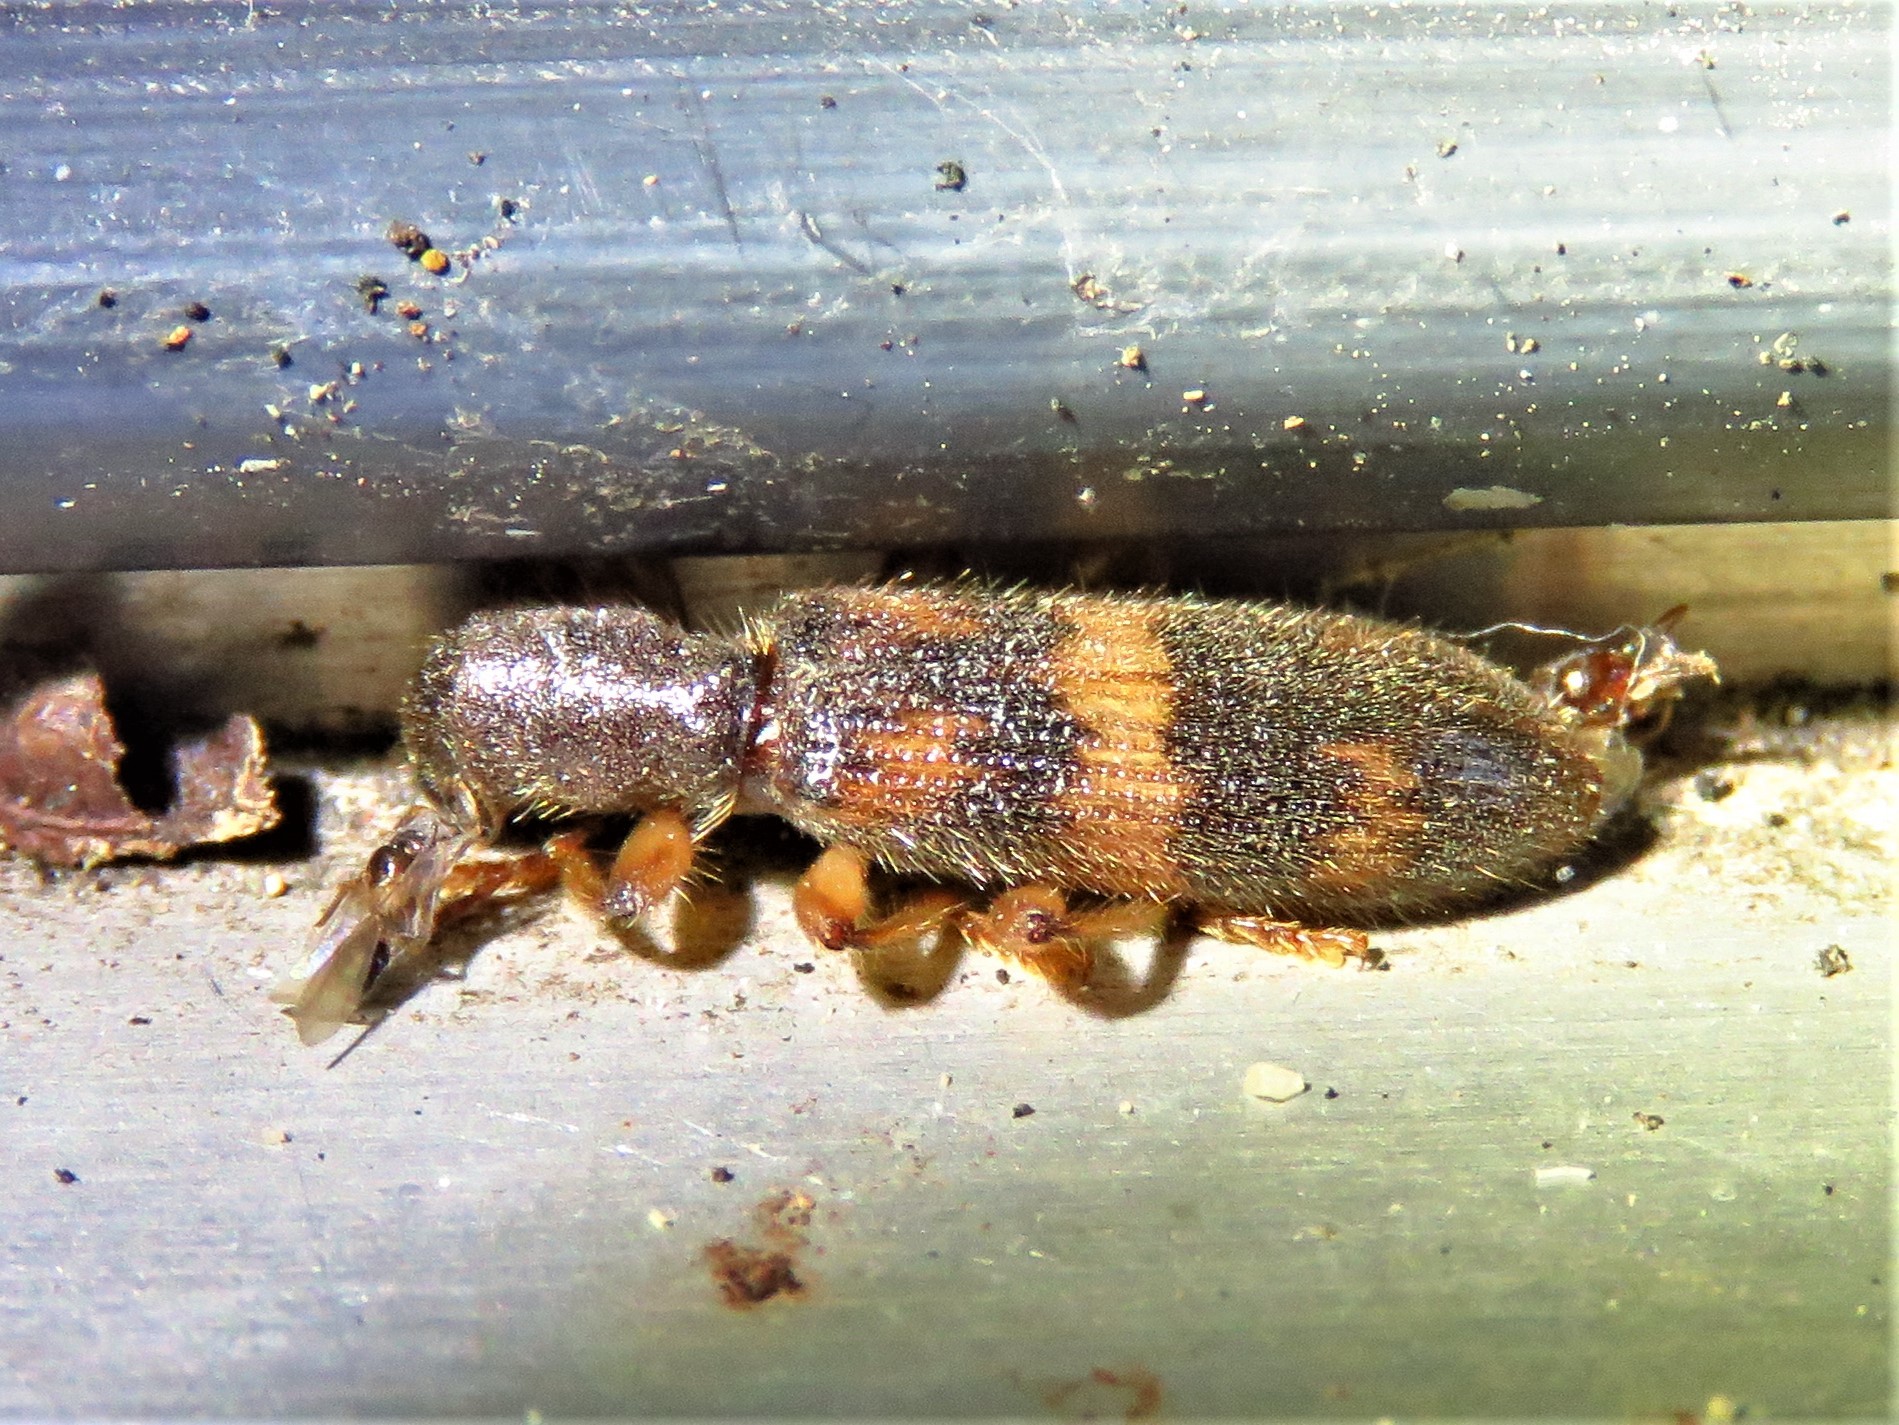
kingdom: Animalia
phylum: Arthropoda
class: Insecta
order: Coleoptera
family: Cleridae
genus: Cymatodera
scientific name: Cymatodera undulata
